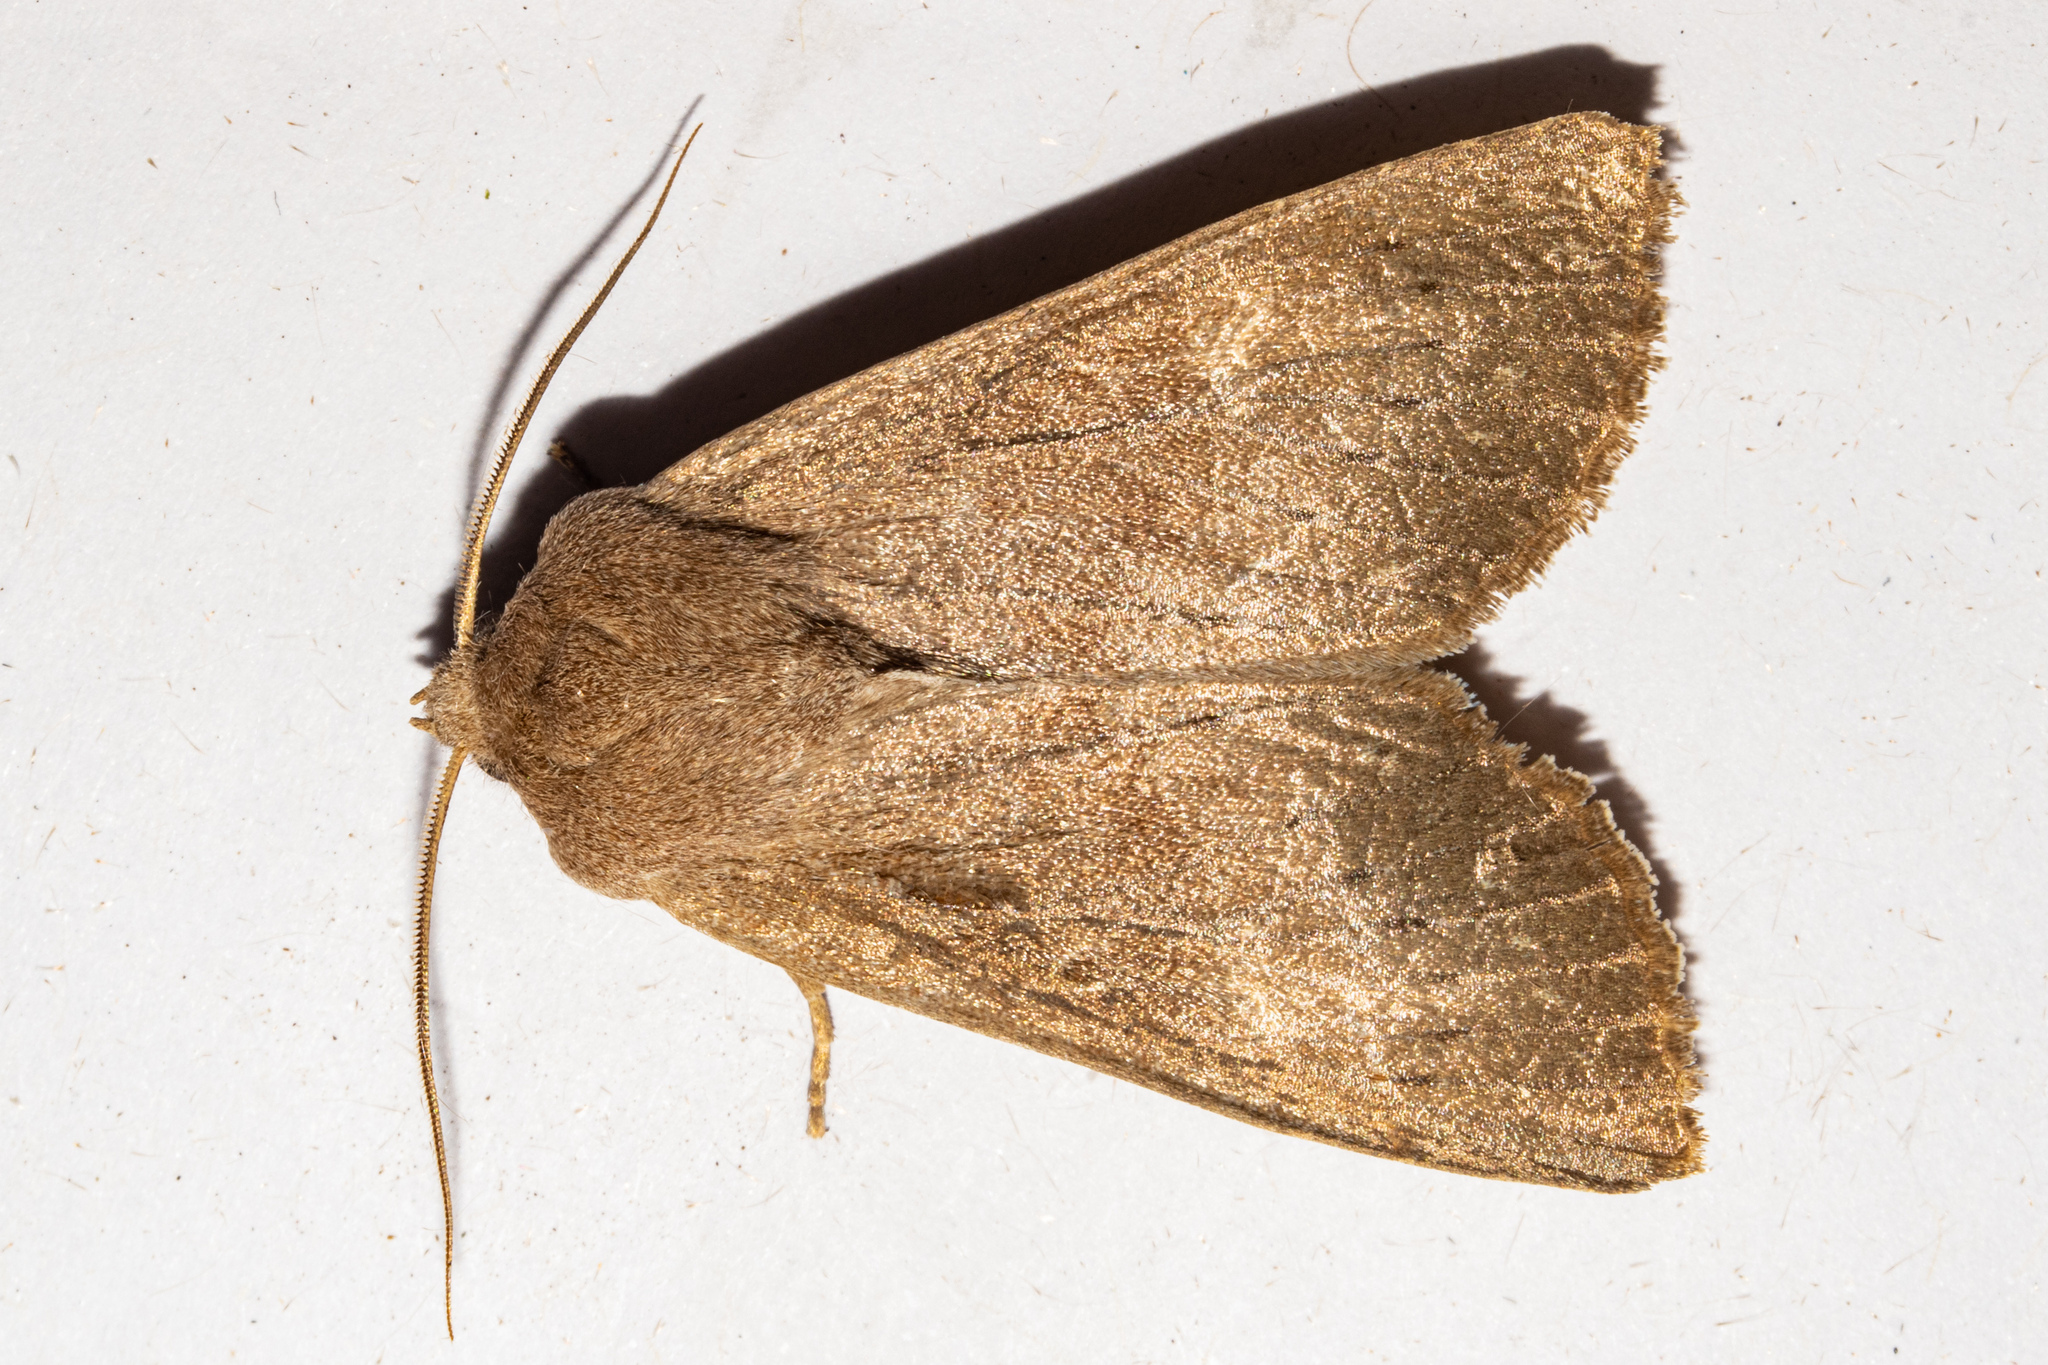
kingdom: Animalia
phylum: Arthropoda
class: Insecta
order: Lepidoptera
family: Noctuidae
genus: Ichneutica
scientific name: Ichneutica nullifera
